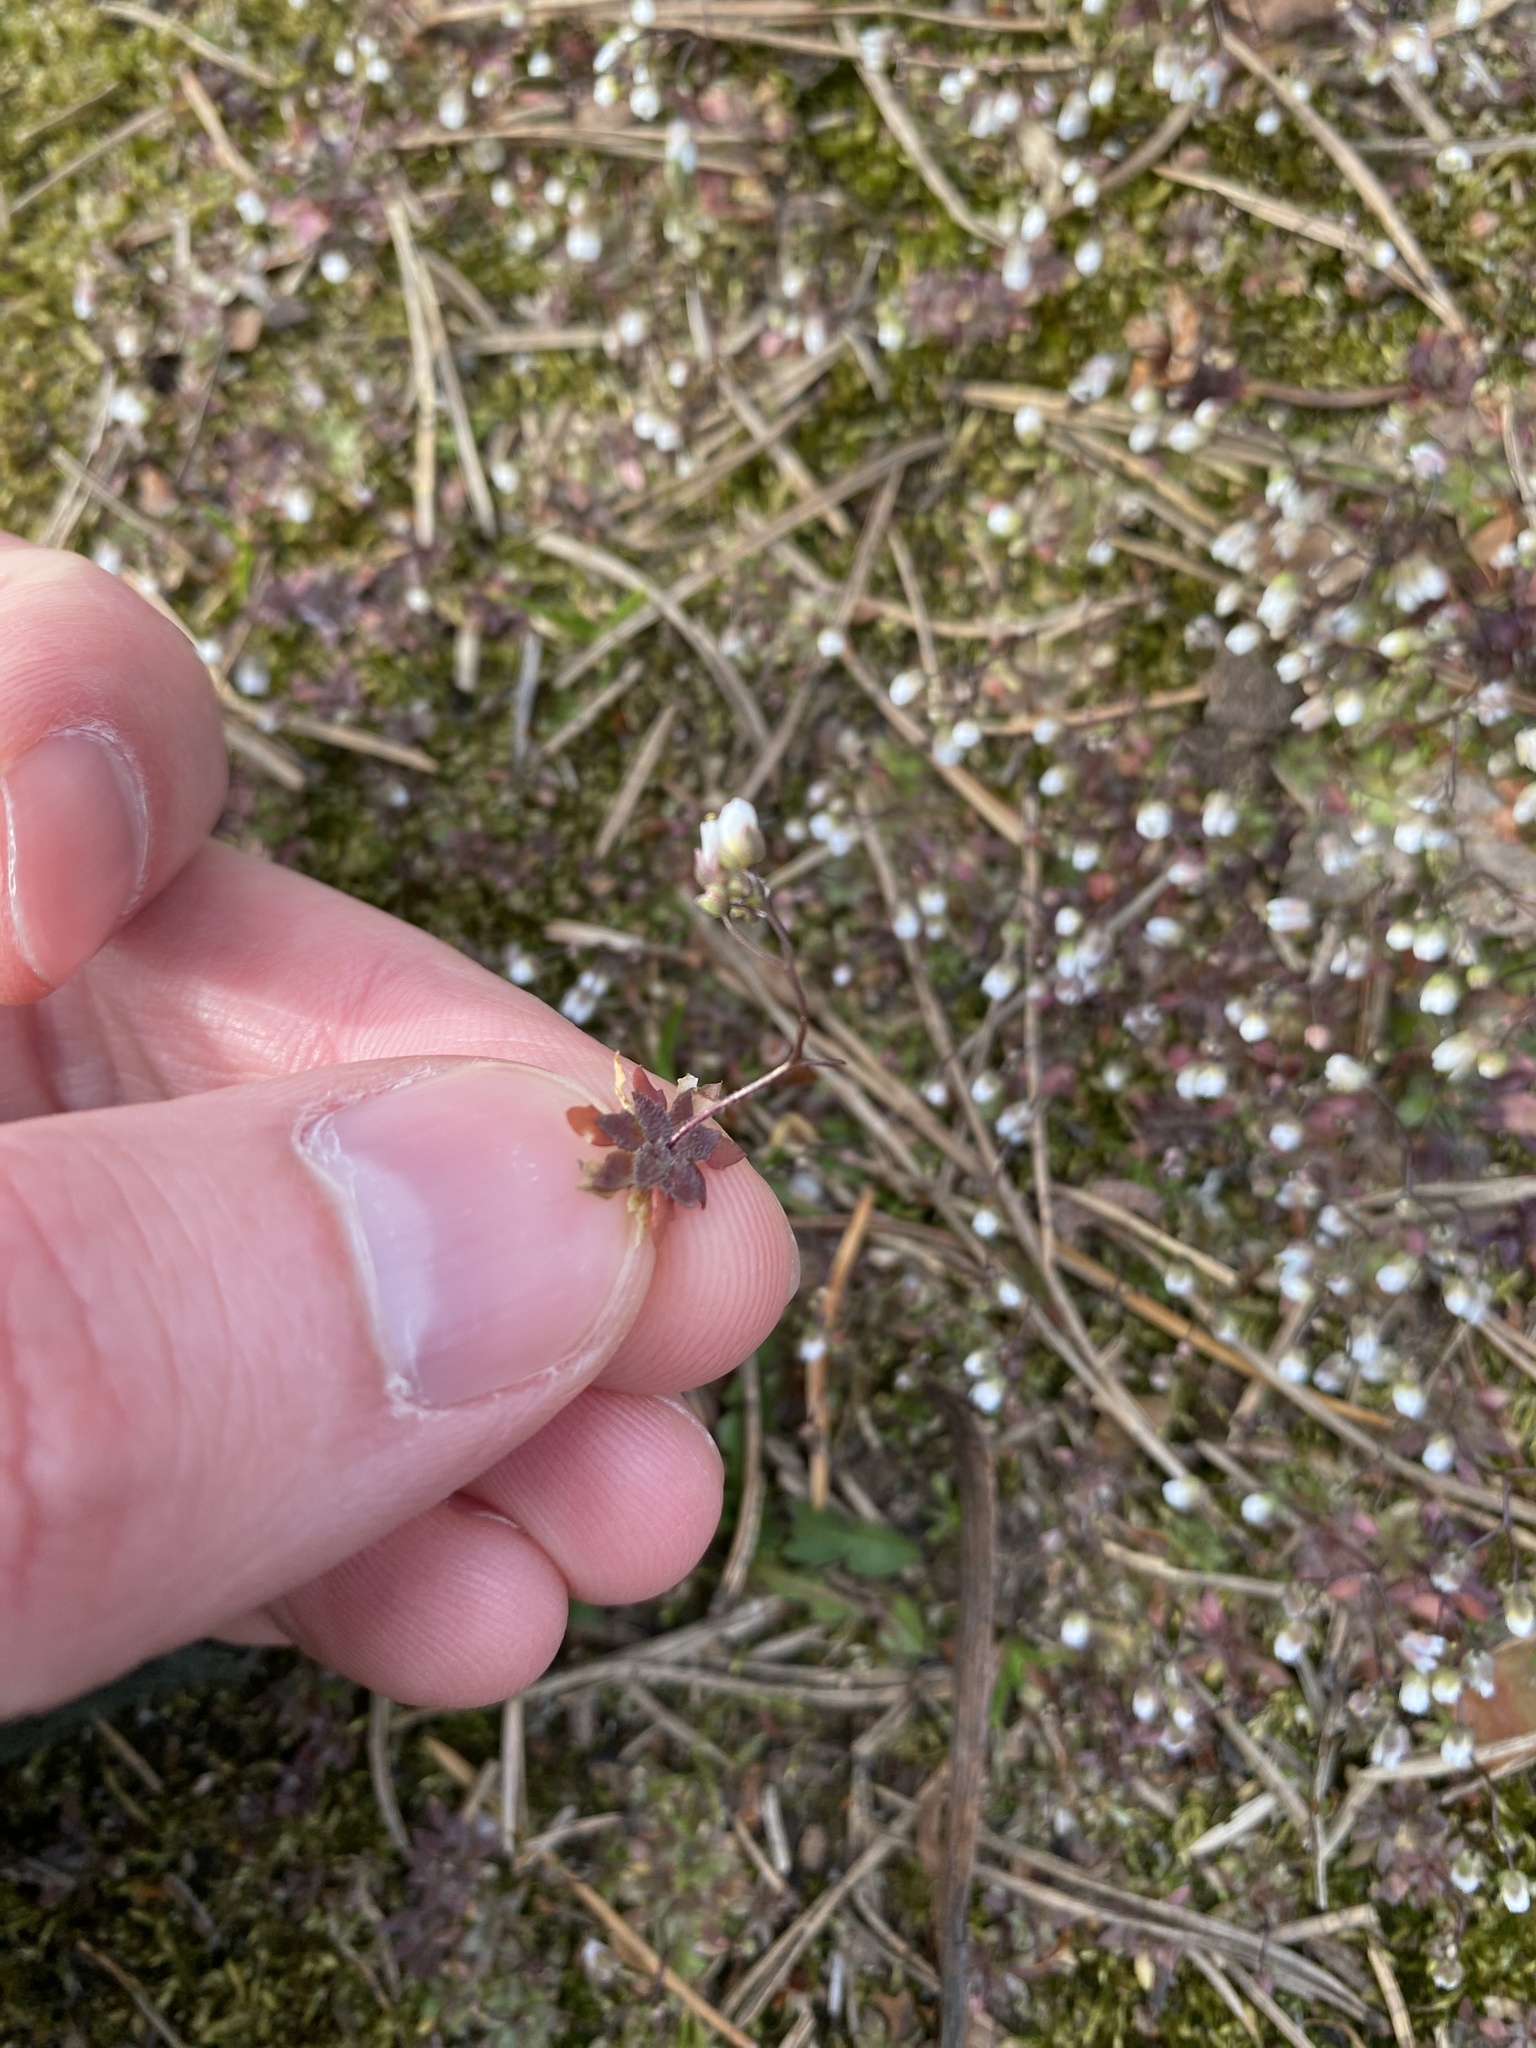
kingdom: Plantae
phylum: Tracheophyta
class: Magnoliopsida
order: Brassicales
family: Brassicaceae
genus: Draba
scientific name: Draba verna
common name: Spring draba
